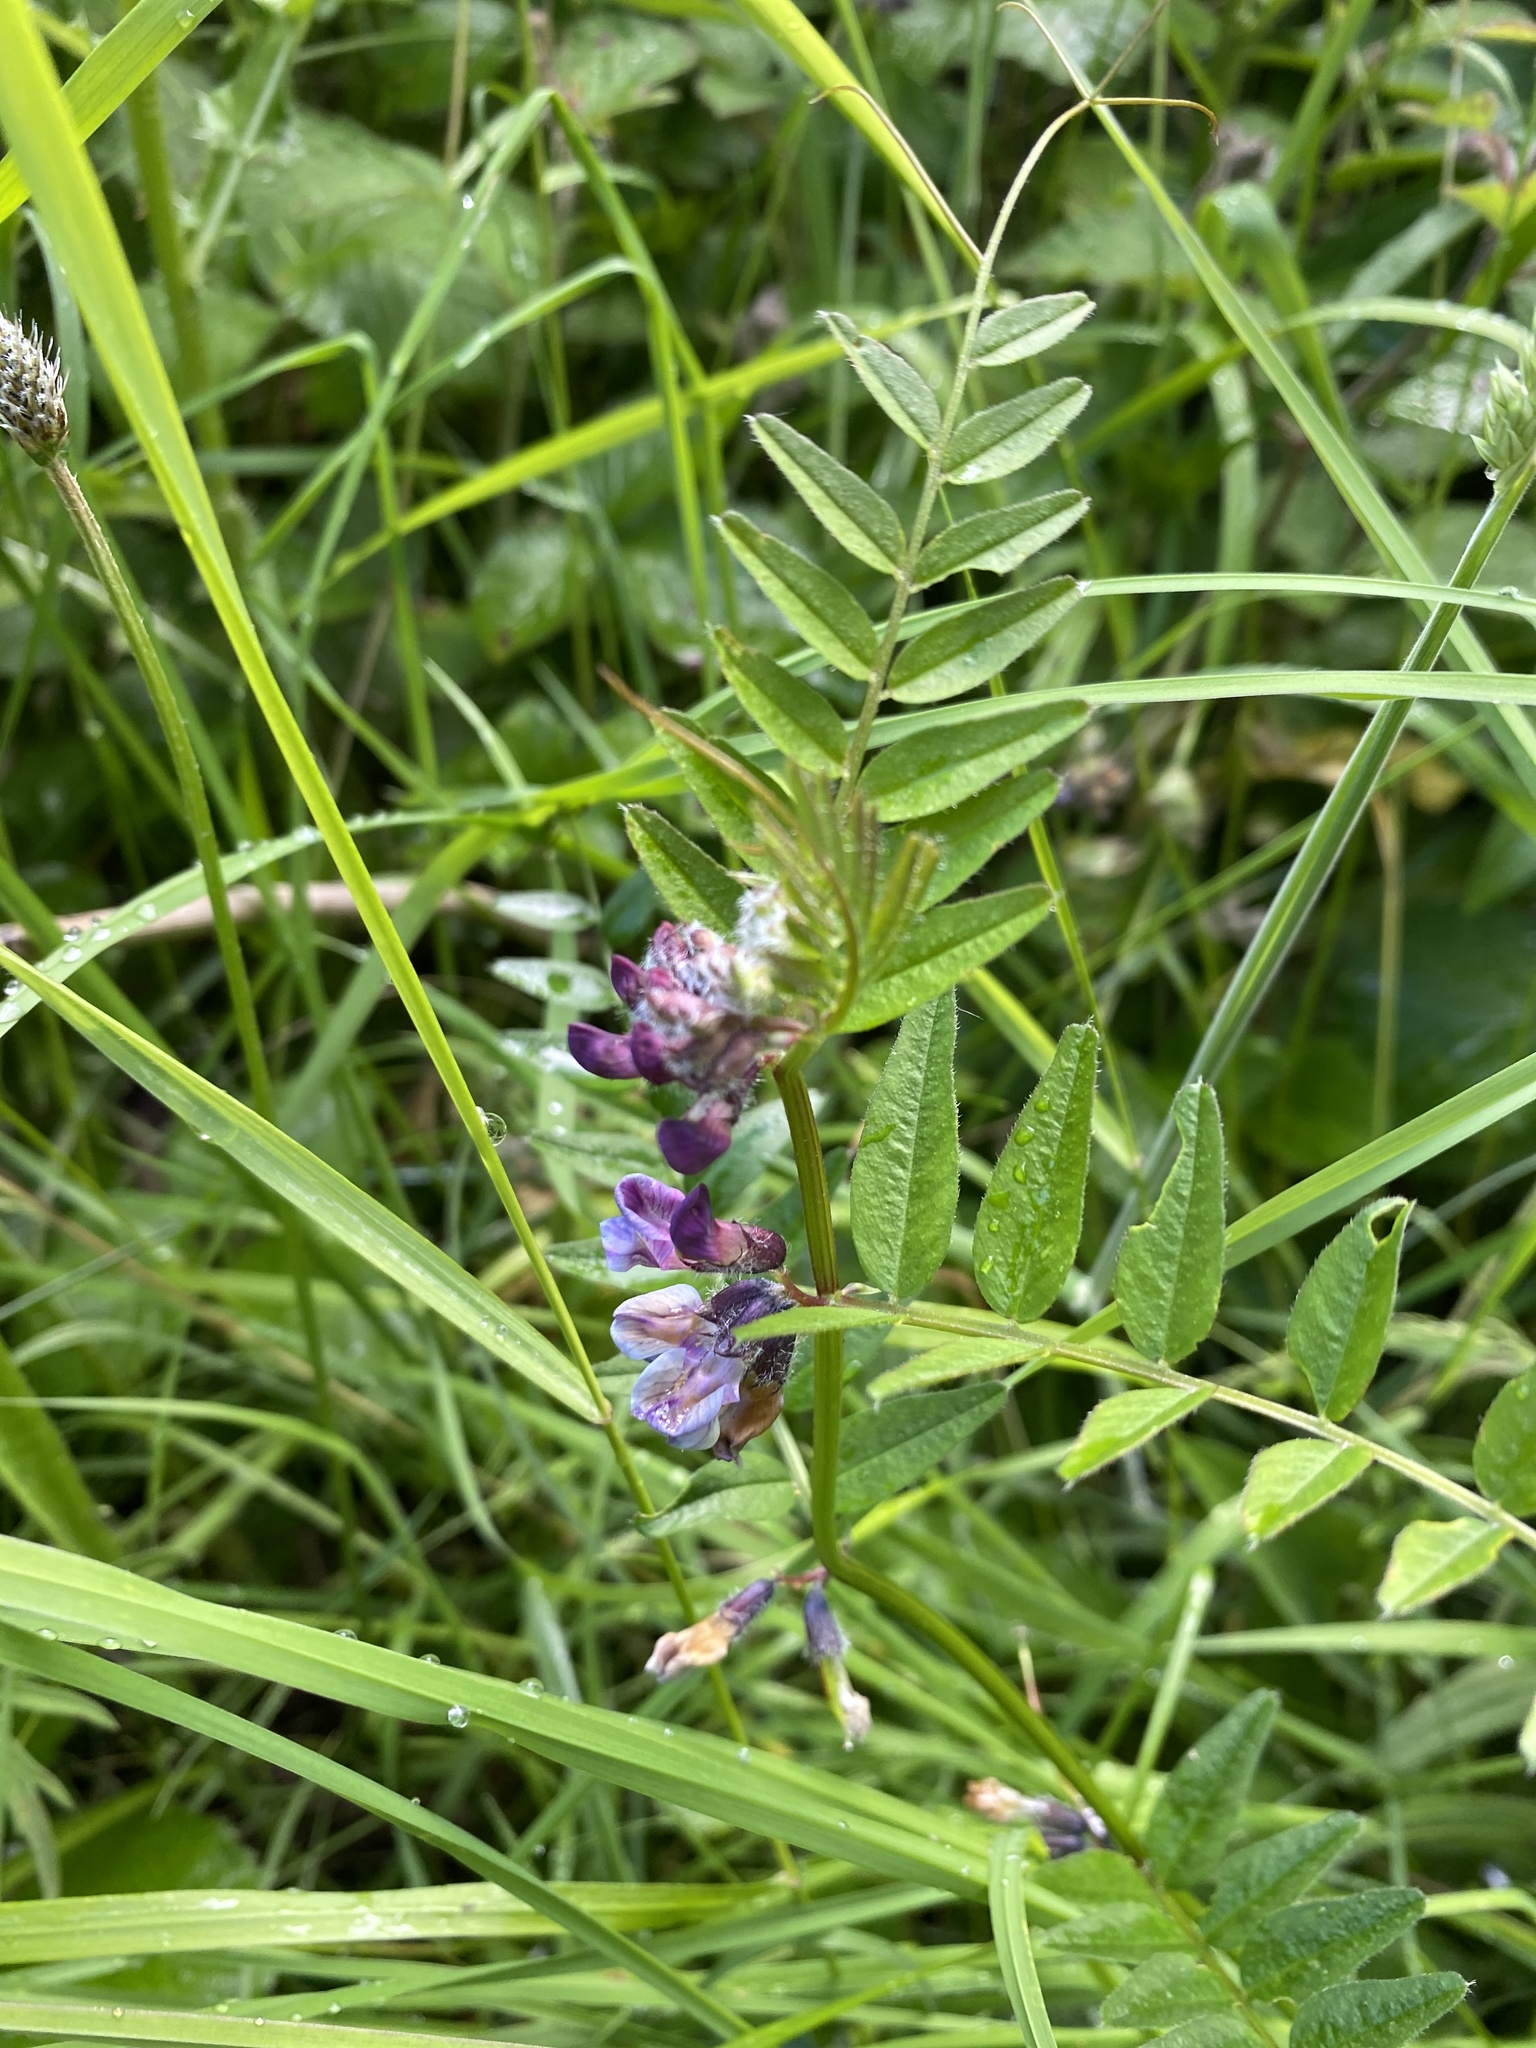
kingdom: Plantae
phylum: Tracheophyta
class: Magnoliopsida
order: Fabales
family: Fabaceae
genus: Vicia
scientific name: Vicia sepium
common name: Bush vetch
